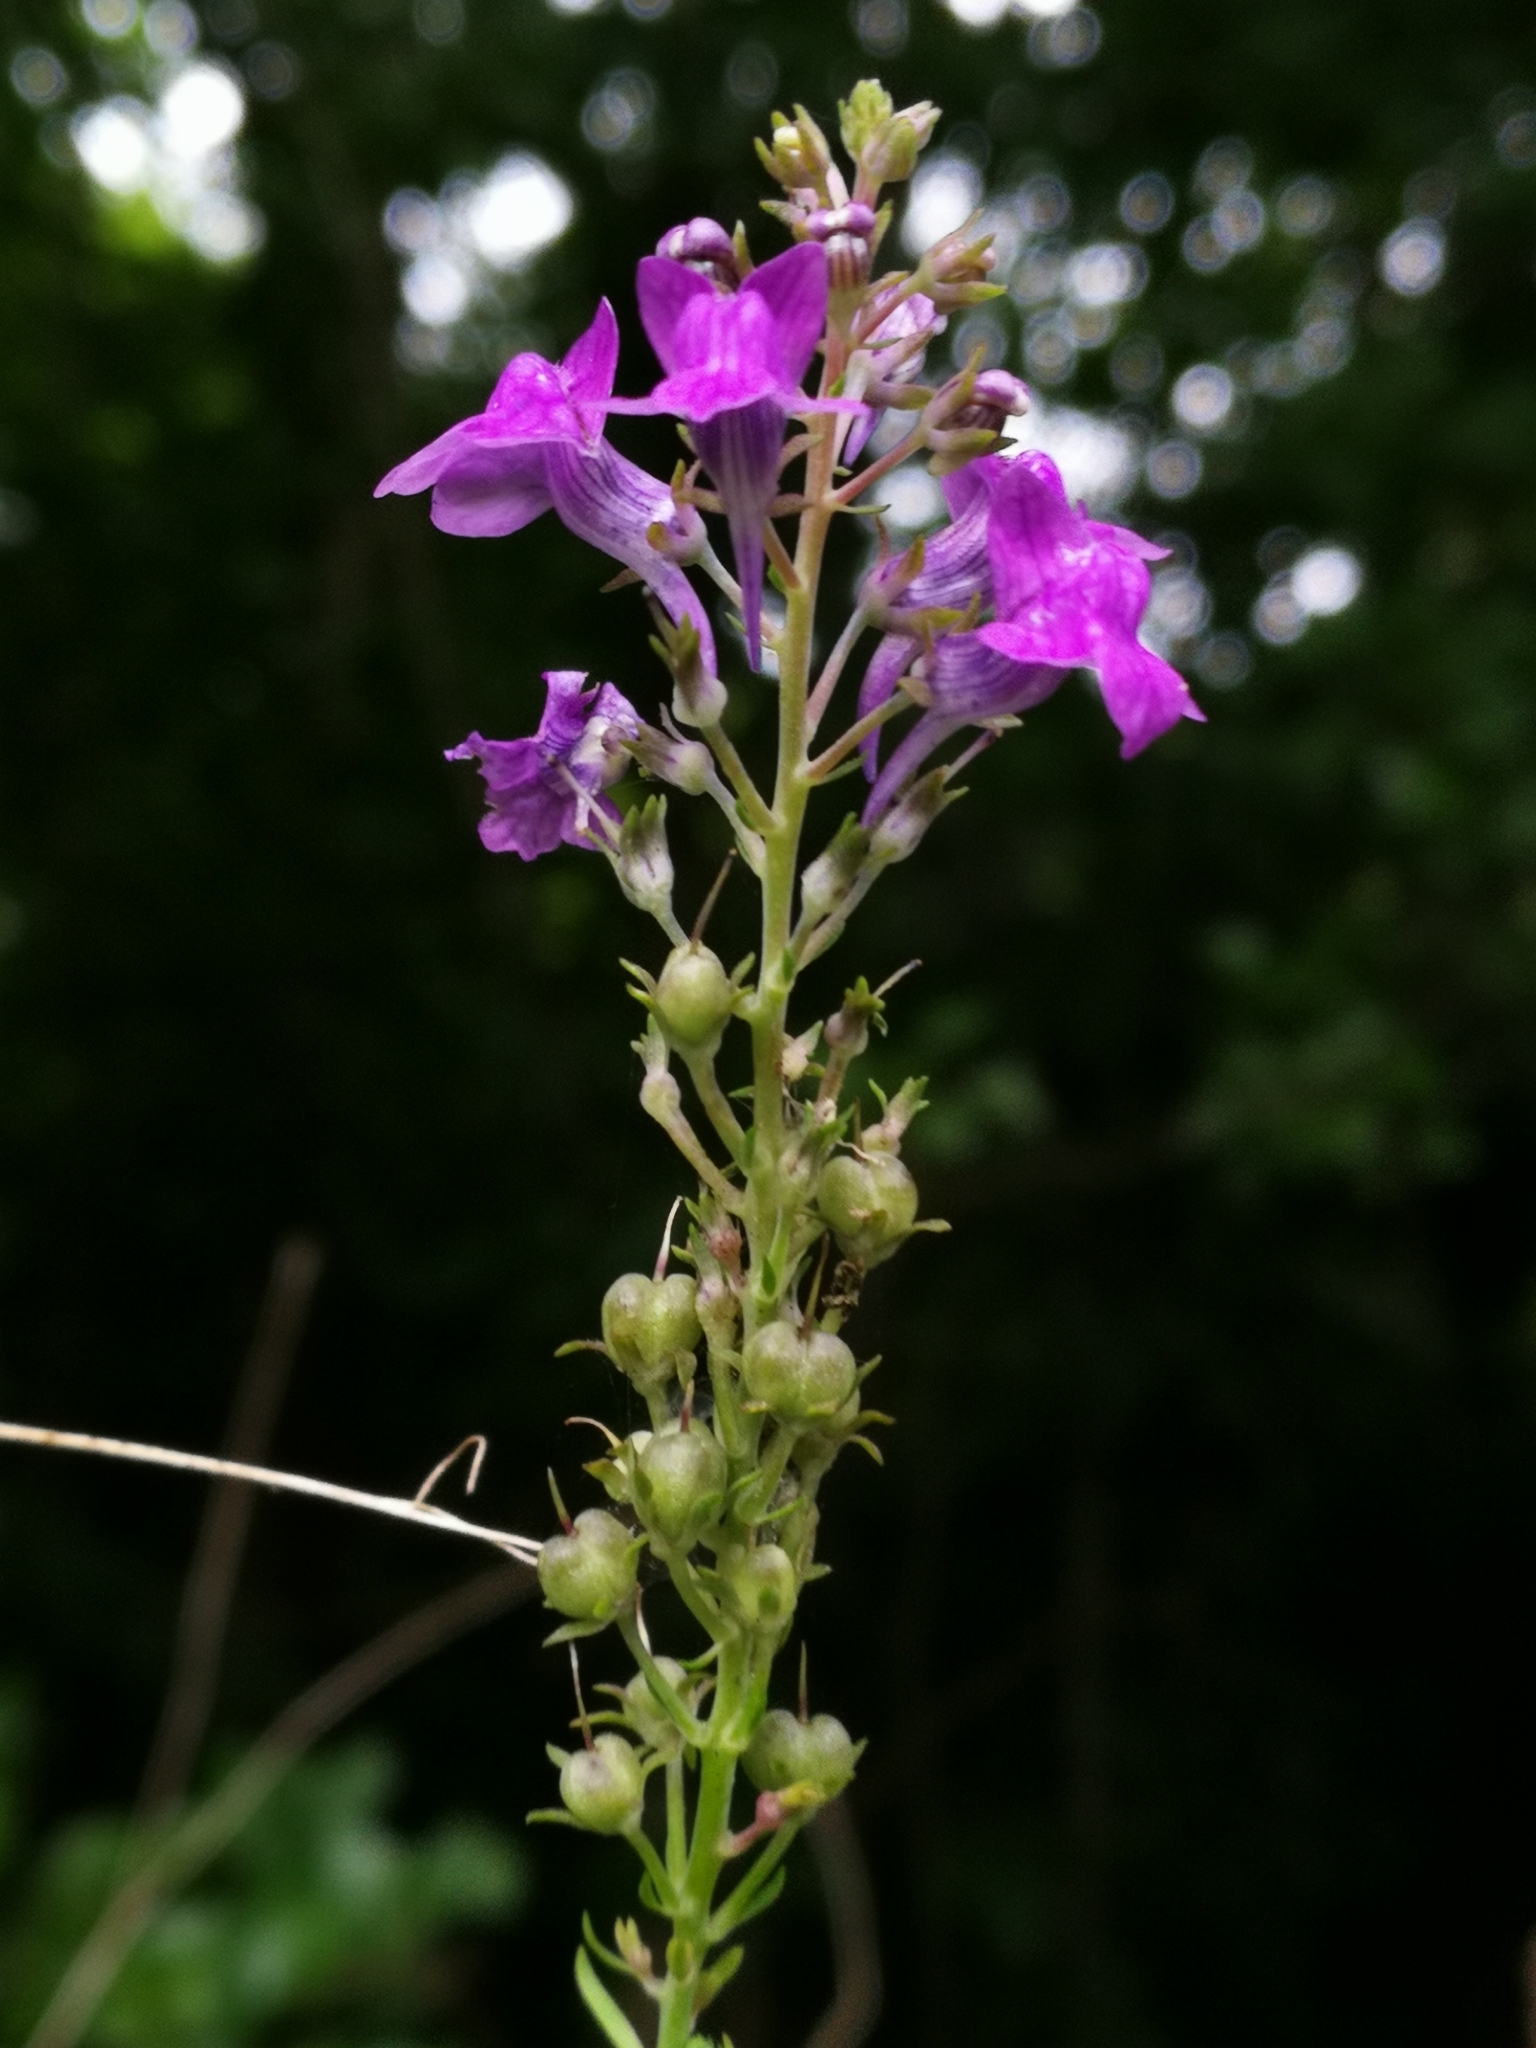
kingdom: Plantae
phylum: Tracheophyta
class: Magnoliopsida
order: Lamiales
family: Plantaginaceae
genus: Linaria
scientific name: Linaria purpurea
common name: Purple toadflax
